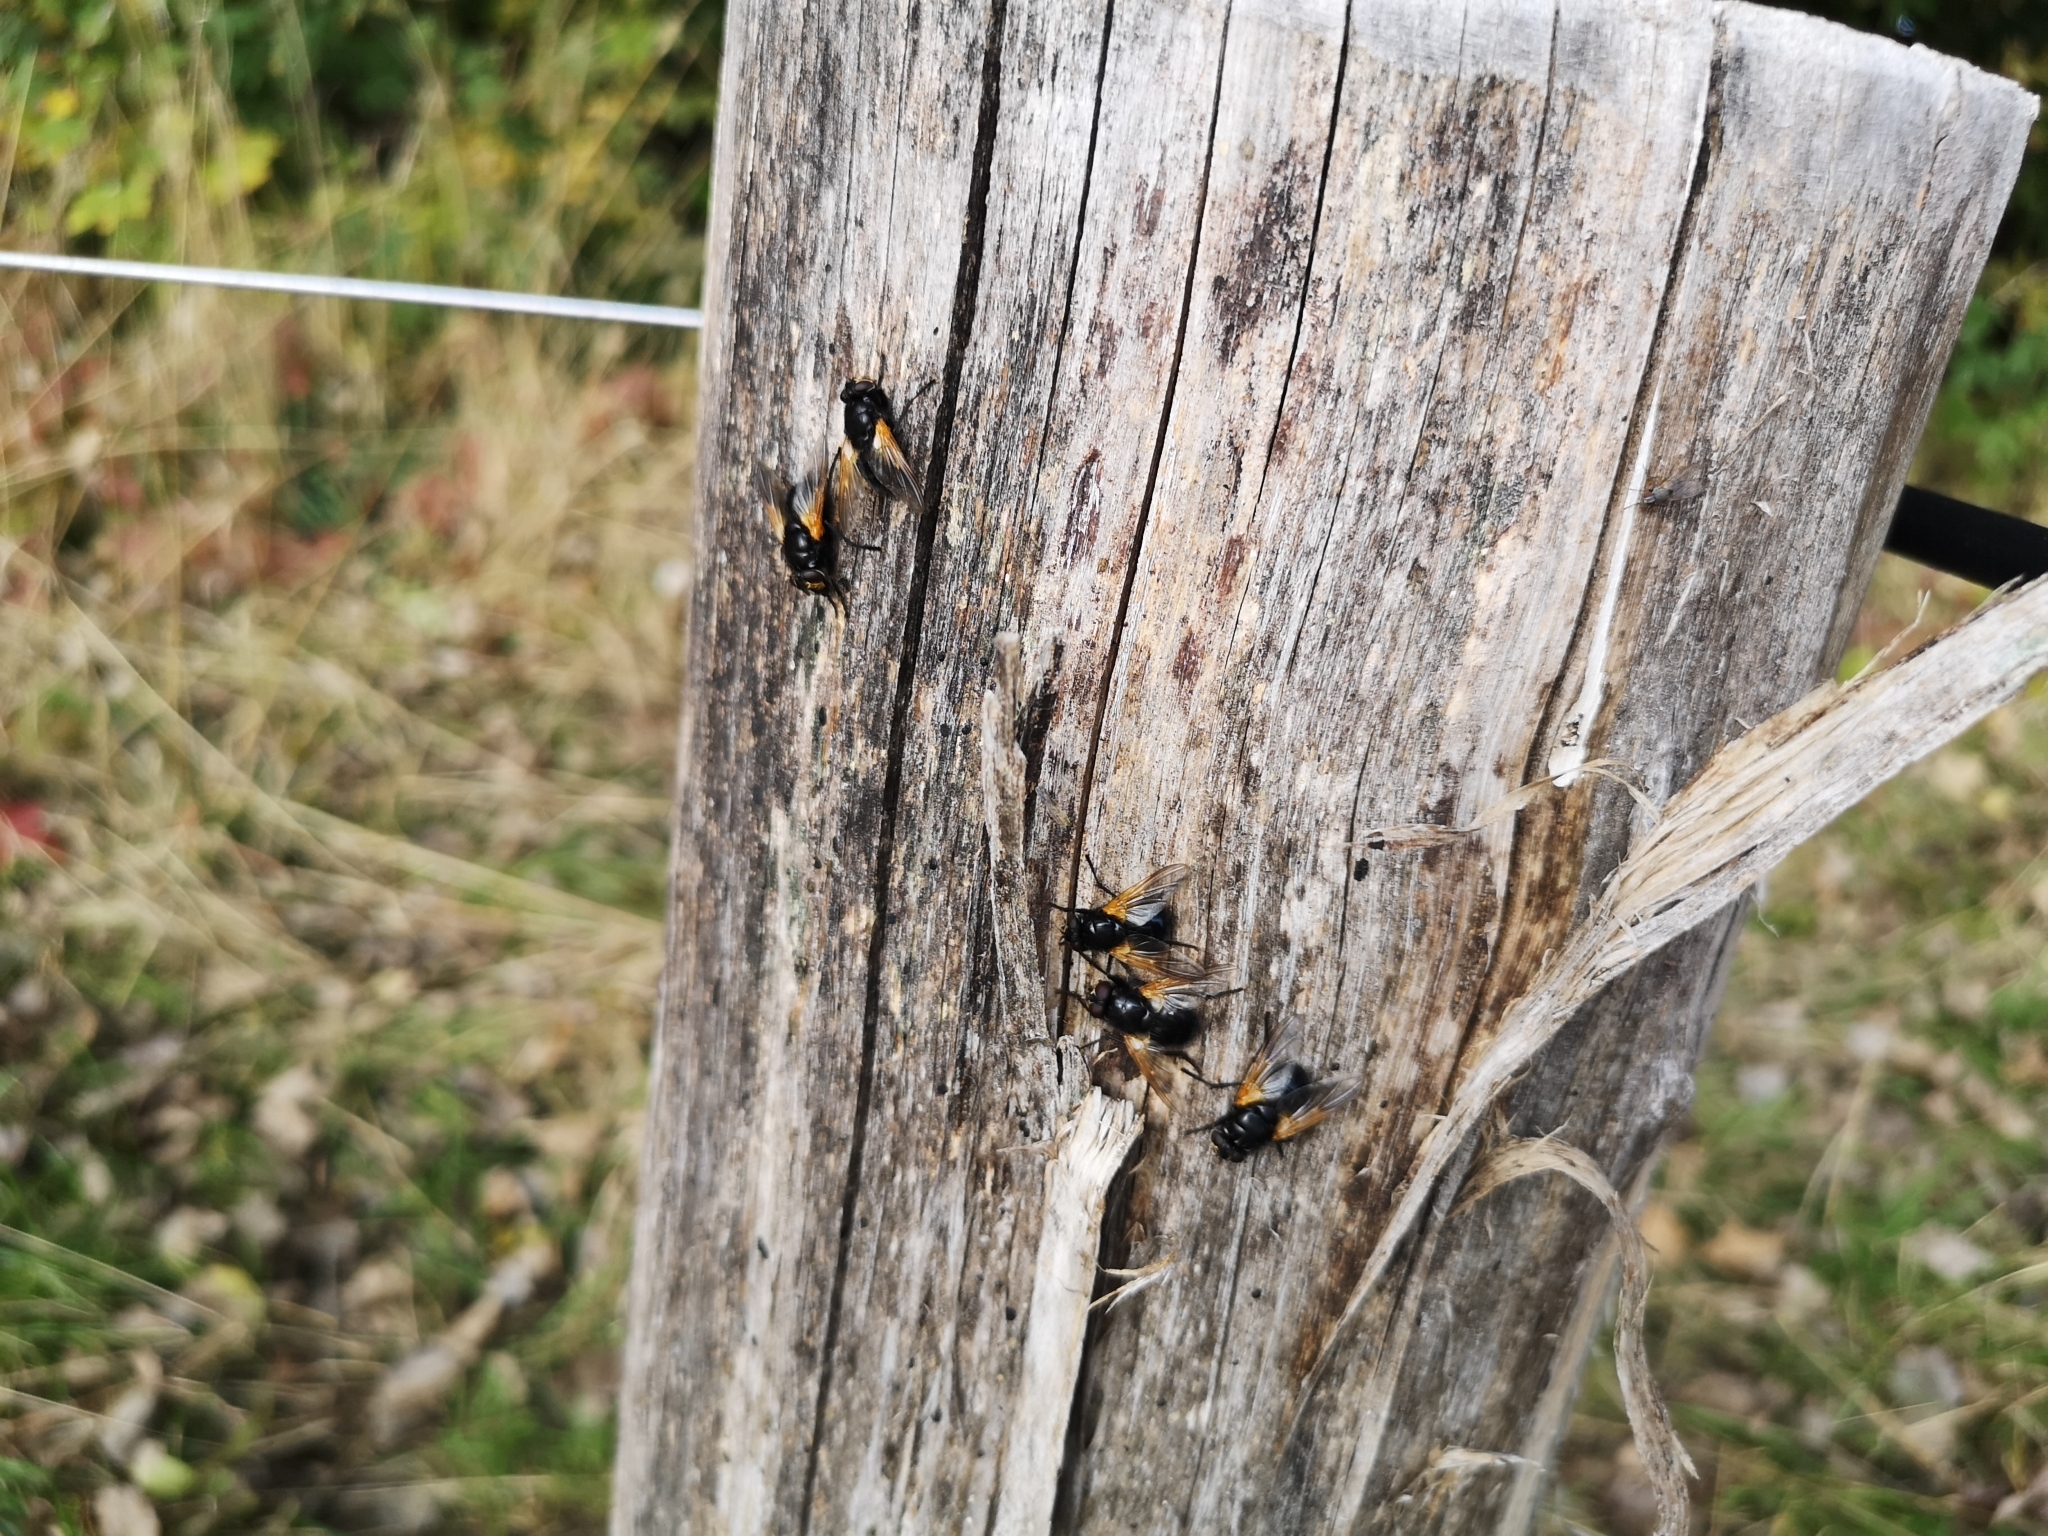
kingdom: Animalia
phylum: Arthropoda
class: Insecta
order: Diptera
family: Muscidae
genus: Mesembrina
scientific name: Mesembrina meridiana
